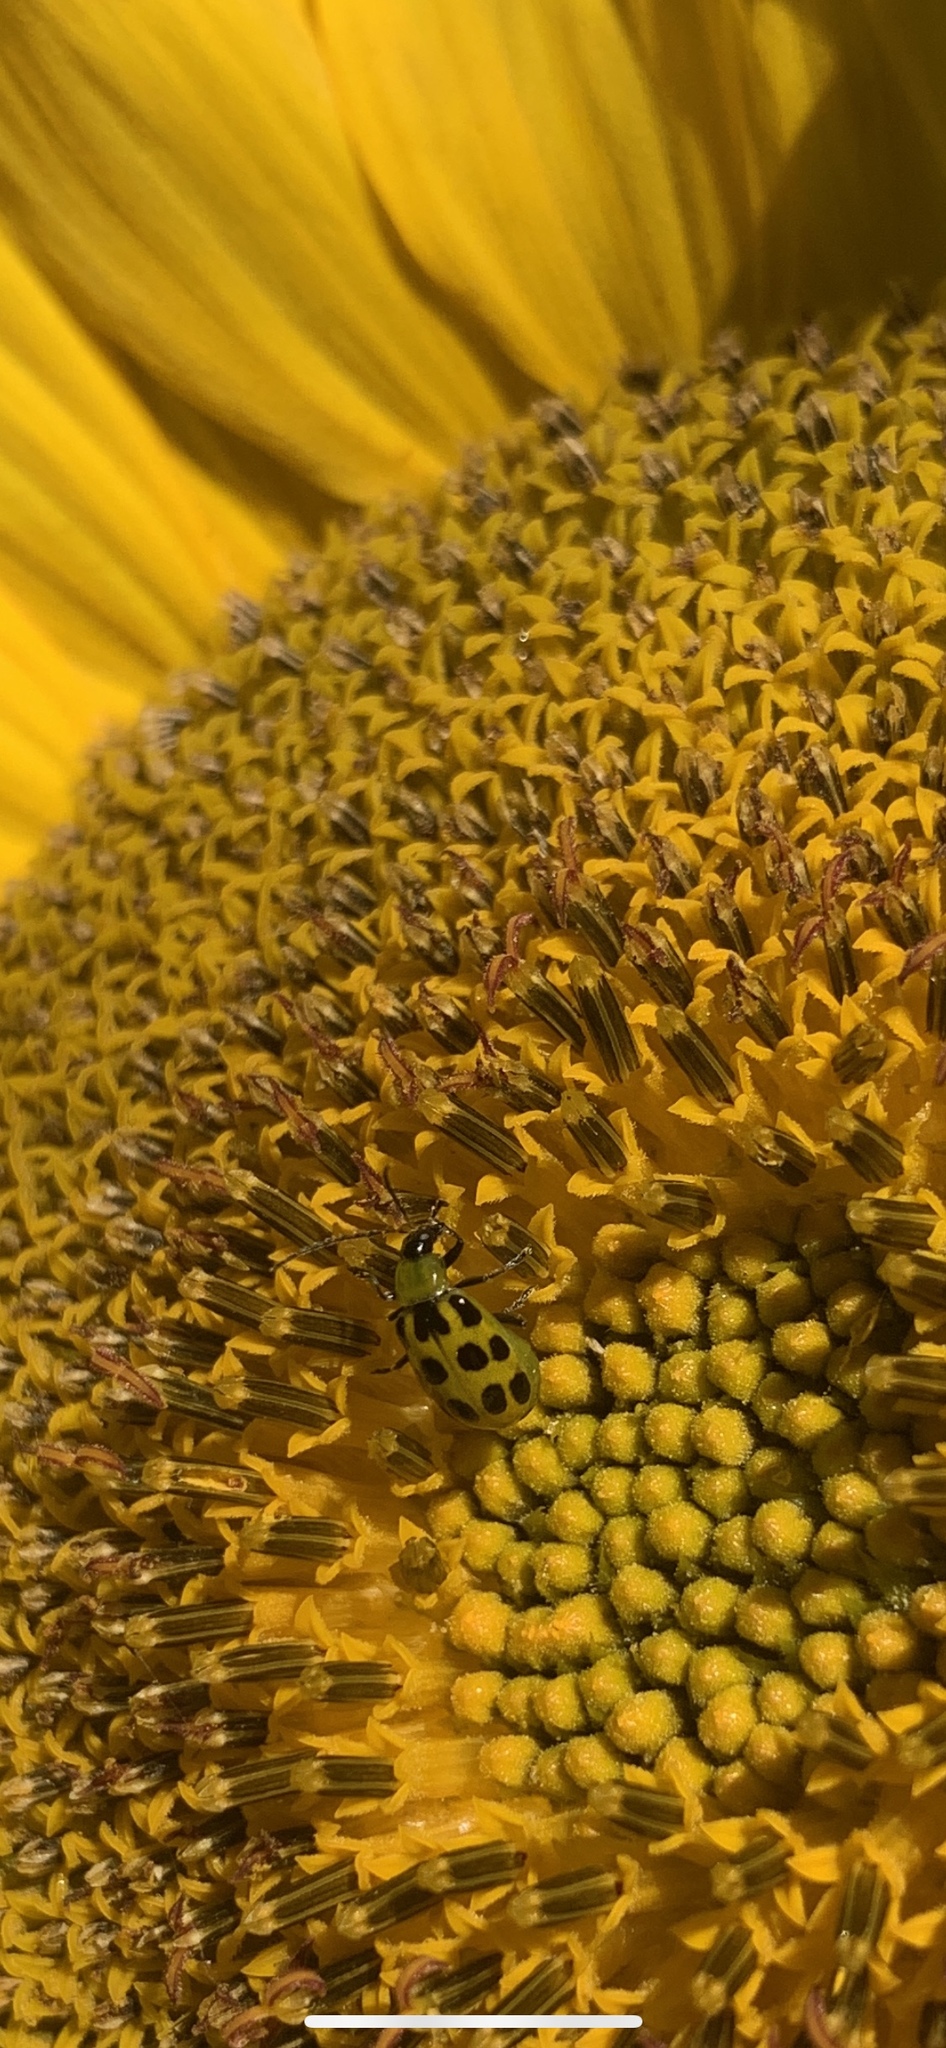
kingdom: Animalia
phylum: Arthropoda
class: Insecta
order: Coleoptera
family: Chrysomelidae
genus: Diabrotica
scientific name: Diabrotica undecimpunctata
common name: Spotted cucumber beetle
